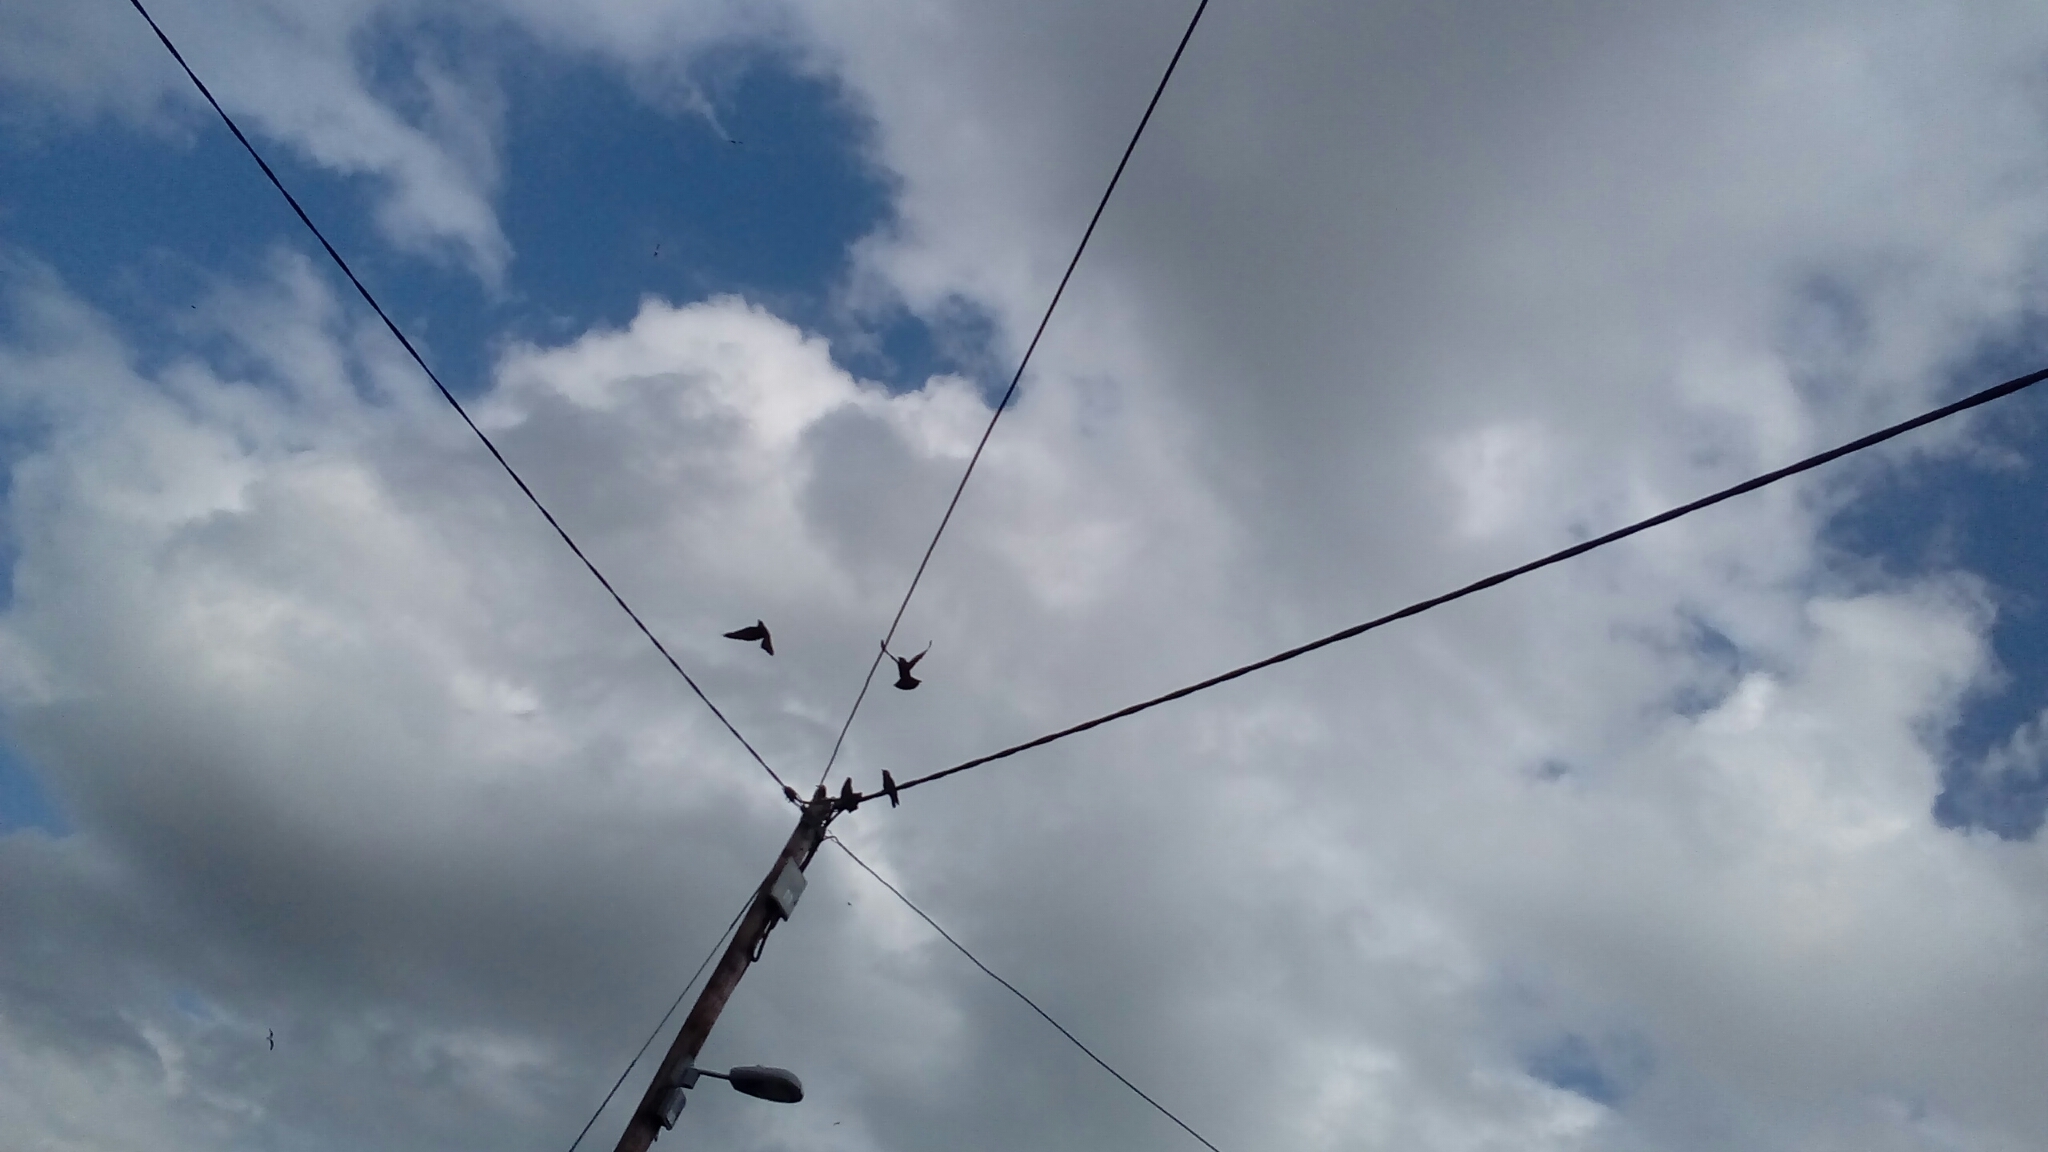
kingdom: Animalia
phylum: Chordata
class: Aves
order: Passeriformes
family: Corvidae
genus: Coloeus
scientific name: Coloeus monedula
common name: Western jackdaw
